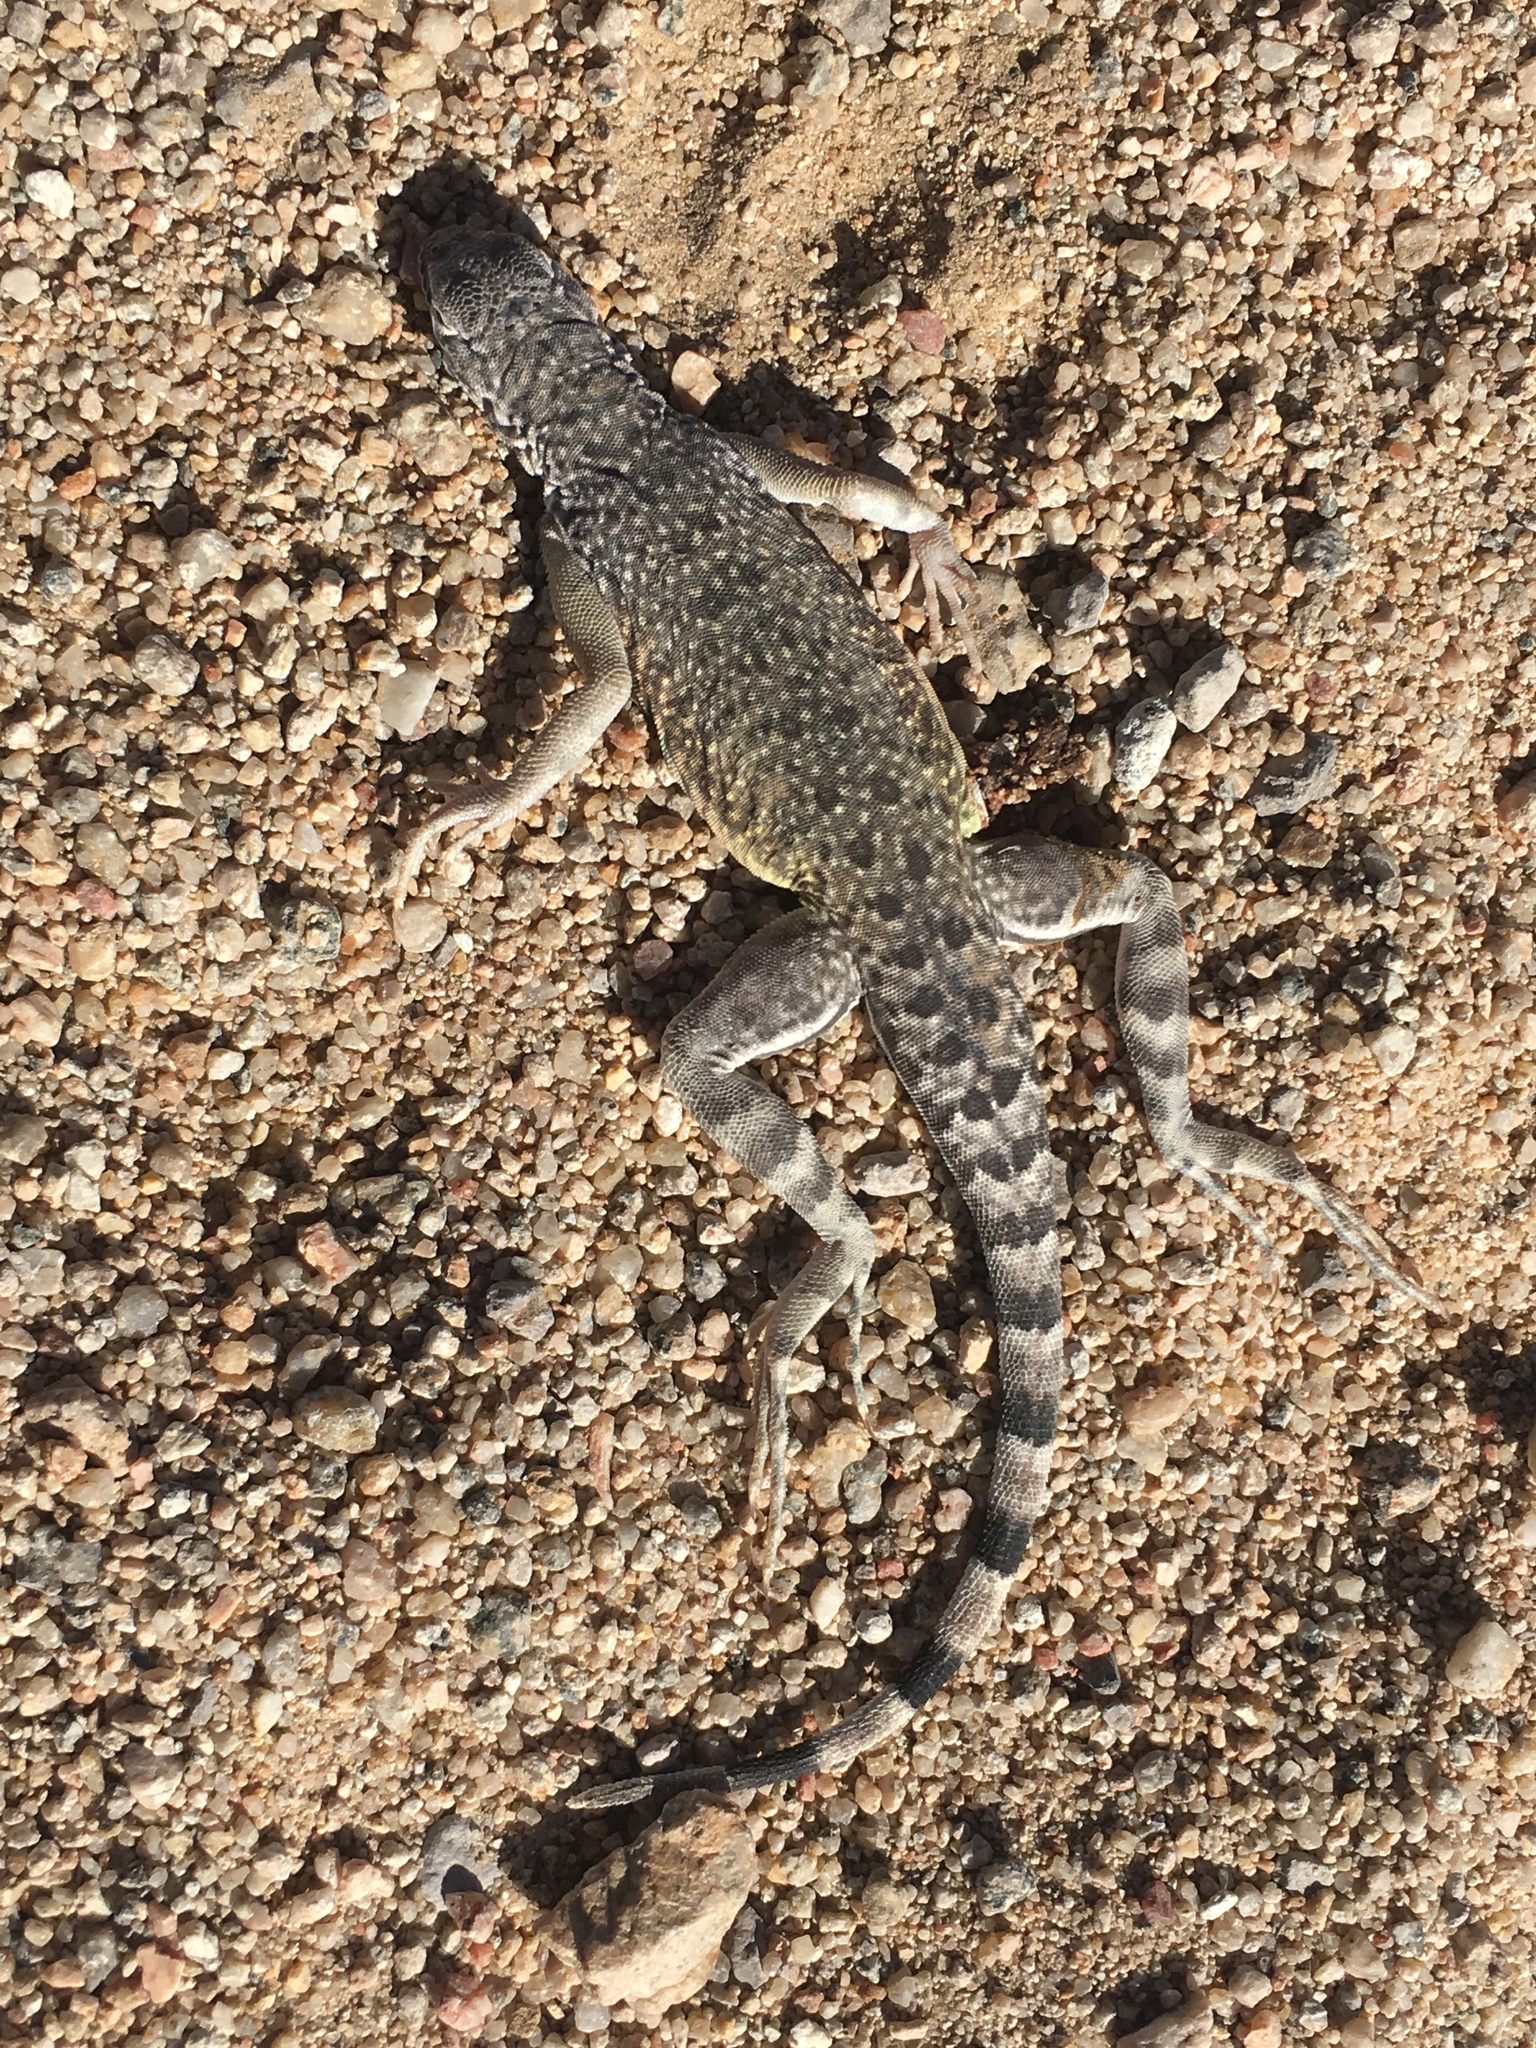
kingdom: Animalia
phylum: Chordata
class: Squamata
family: Phrynosomatidae
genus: Callisaurus
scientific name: Callisaurus draconoides
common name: Zebra-tailed lizard
